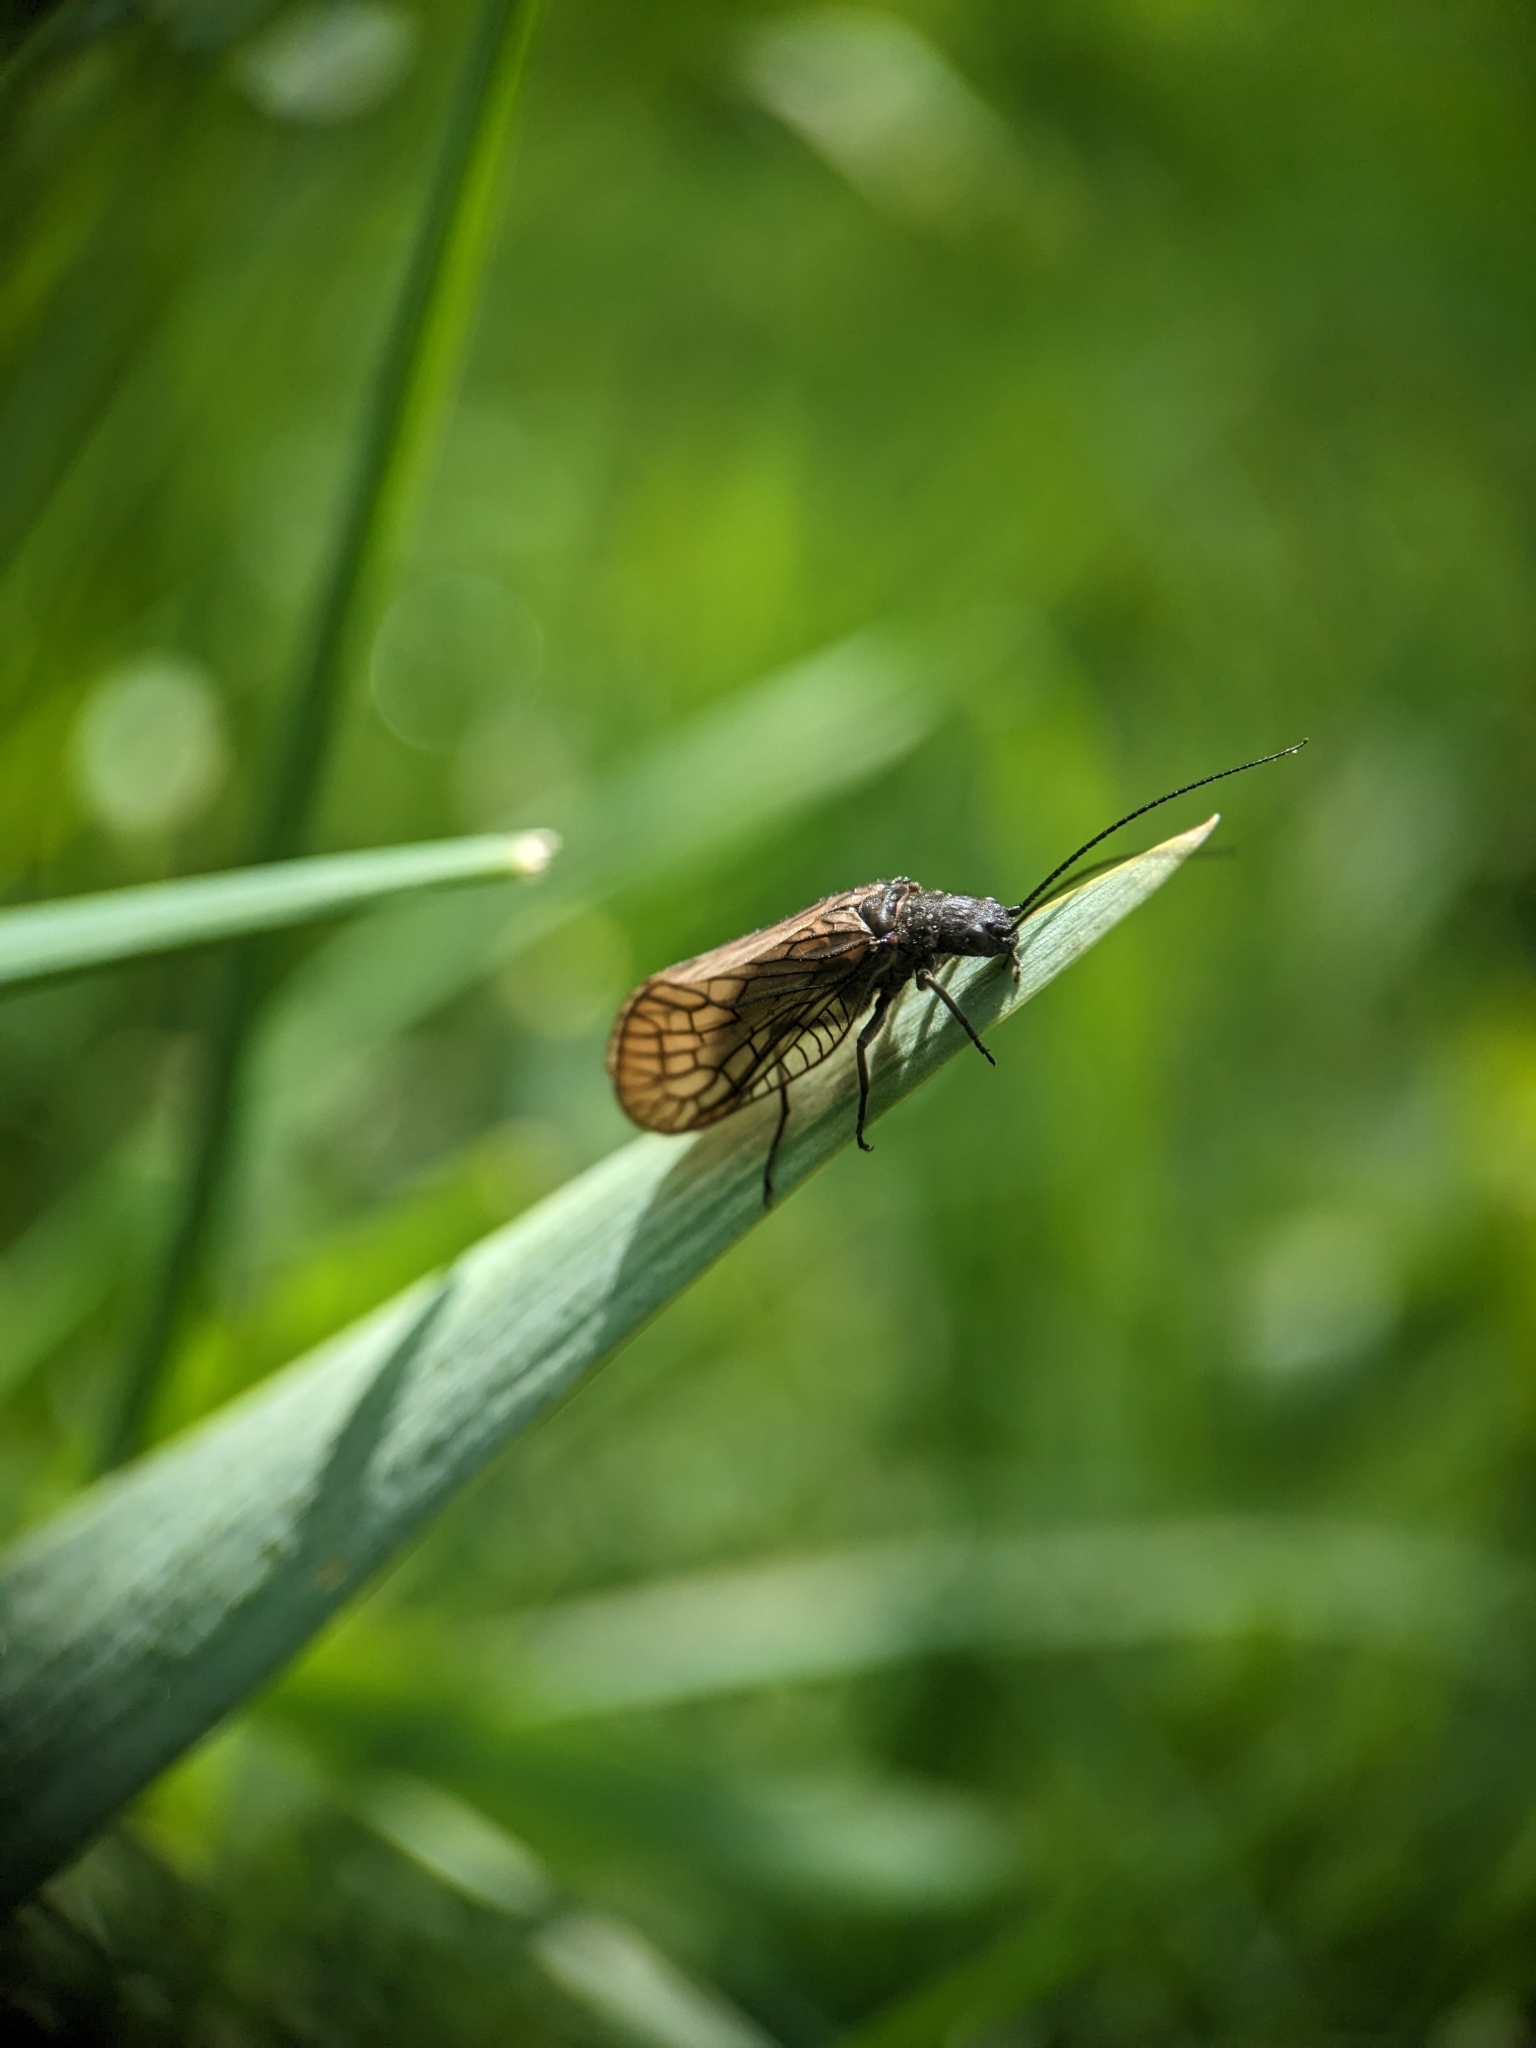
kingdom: Animalia
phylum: Arthropoda
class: Insecta
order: Megaloptera
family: Sialidae
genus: Sialis
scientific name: Sialis
